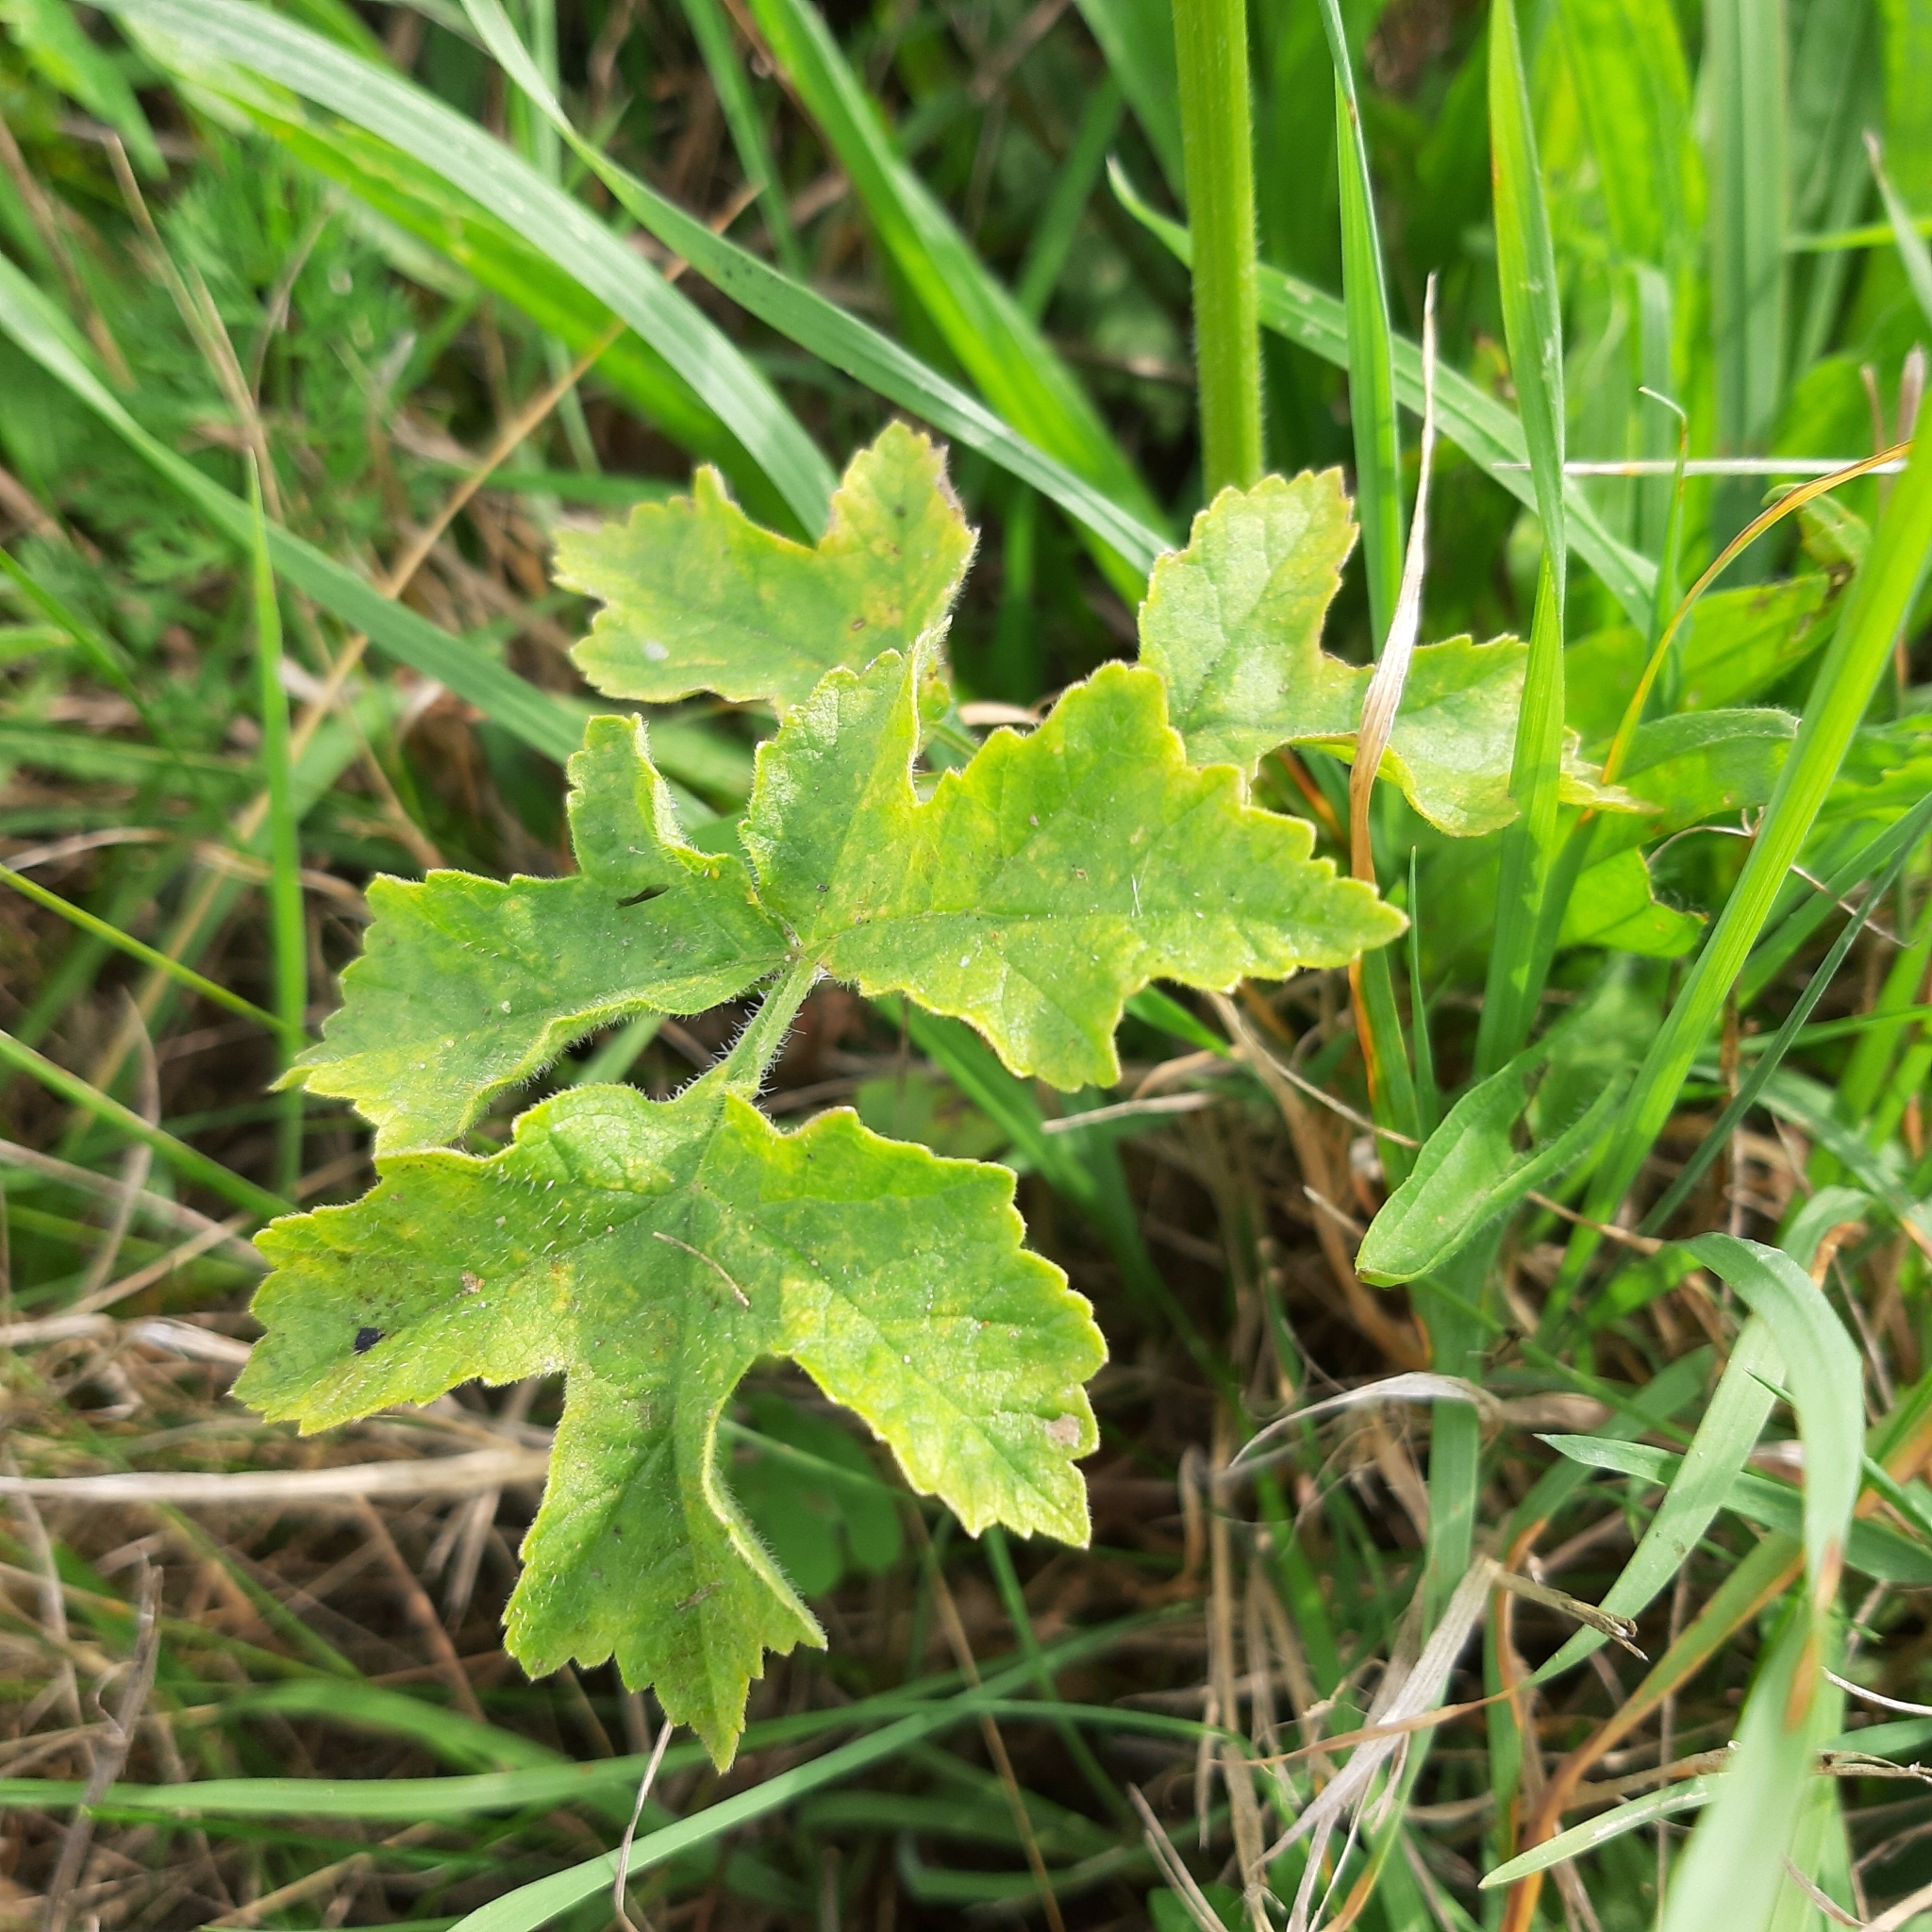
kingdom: Plantae
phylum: Tracheophyta
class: Magnoliopsida
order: Apiales
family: Apiaceae
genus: Pastinaca
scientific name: Pastinaca sativa
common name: Wild parsnip
